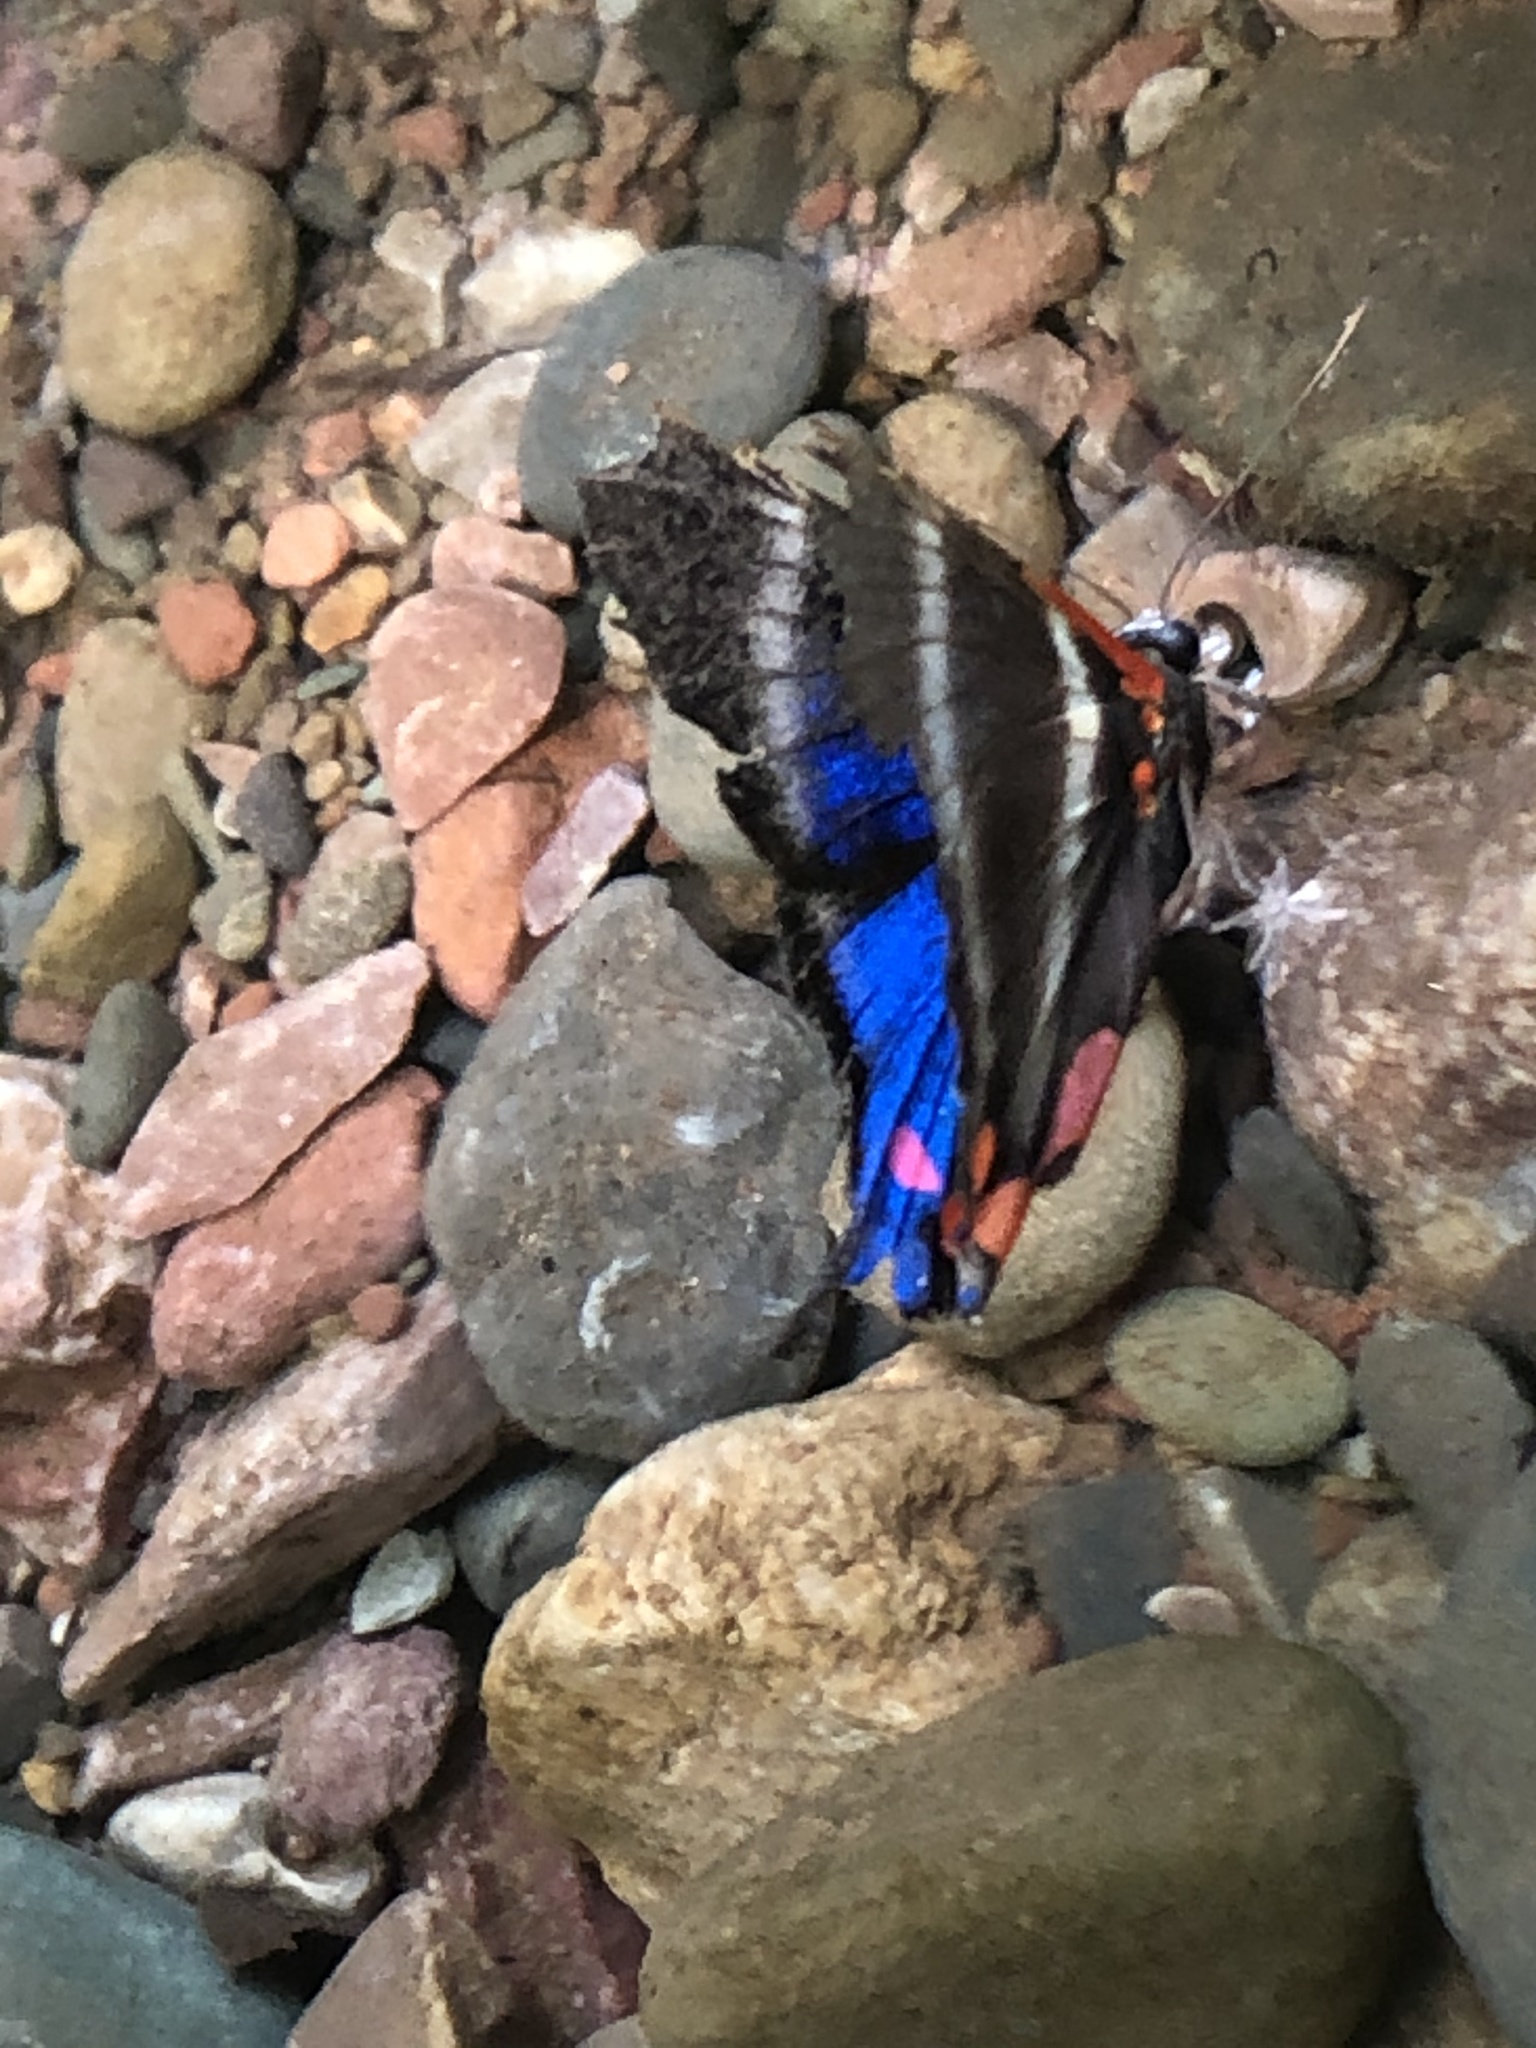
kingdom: Animalia
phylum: Arthropoda
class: Insecta
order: Lepidoptera
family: Riodinidae
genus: Rhetus
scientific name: Rhetus periander
